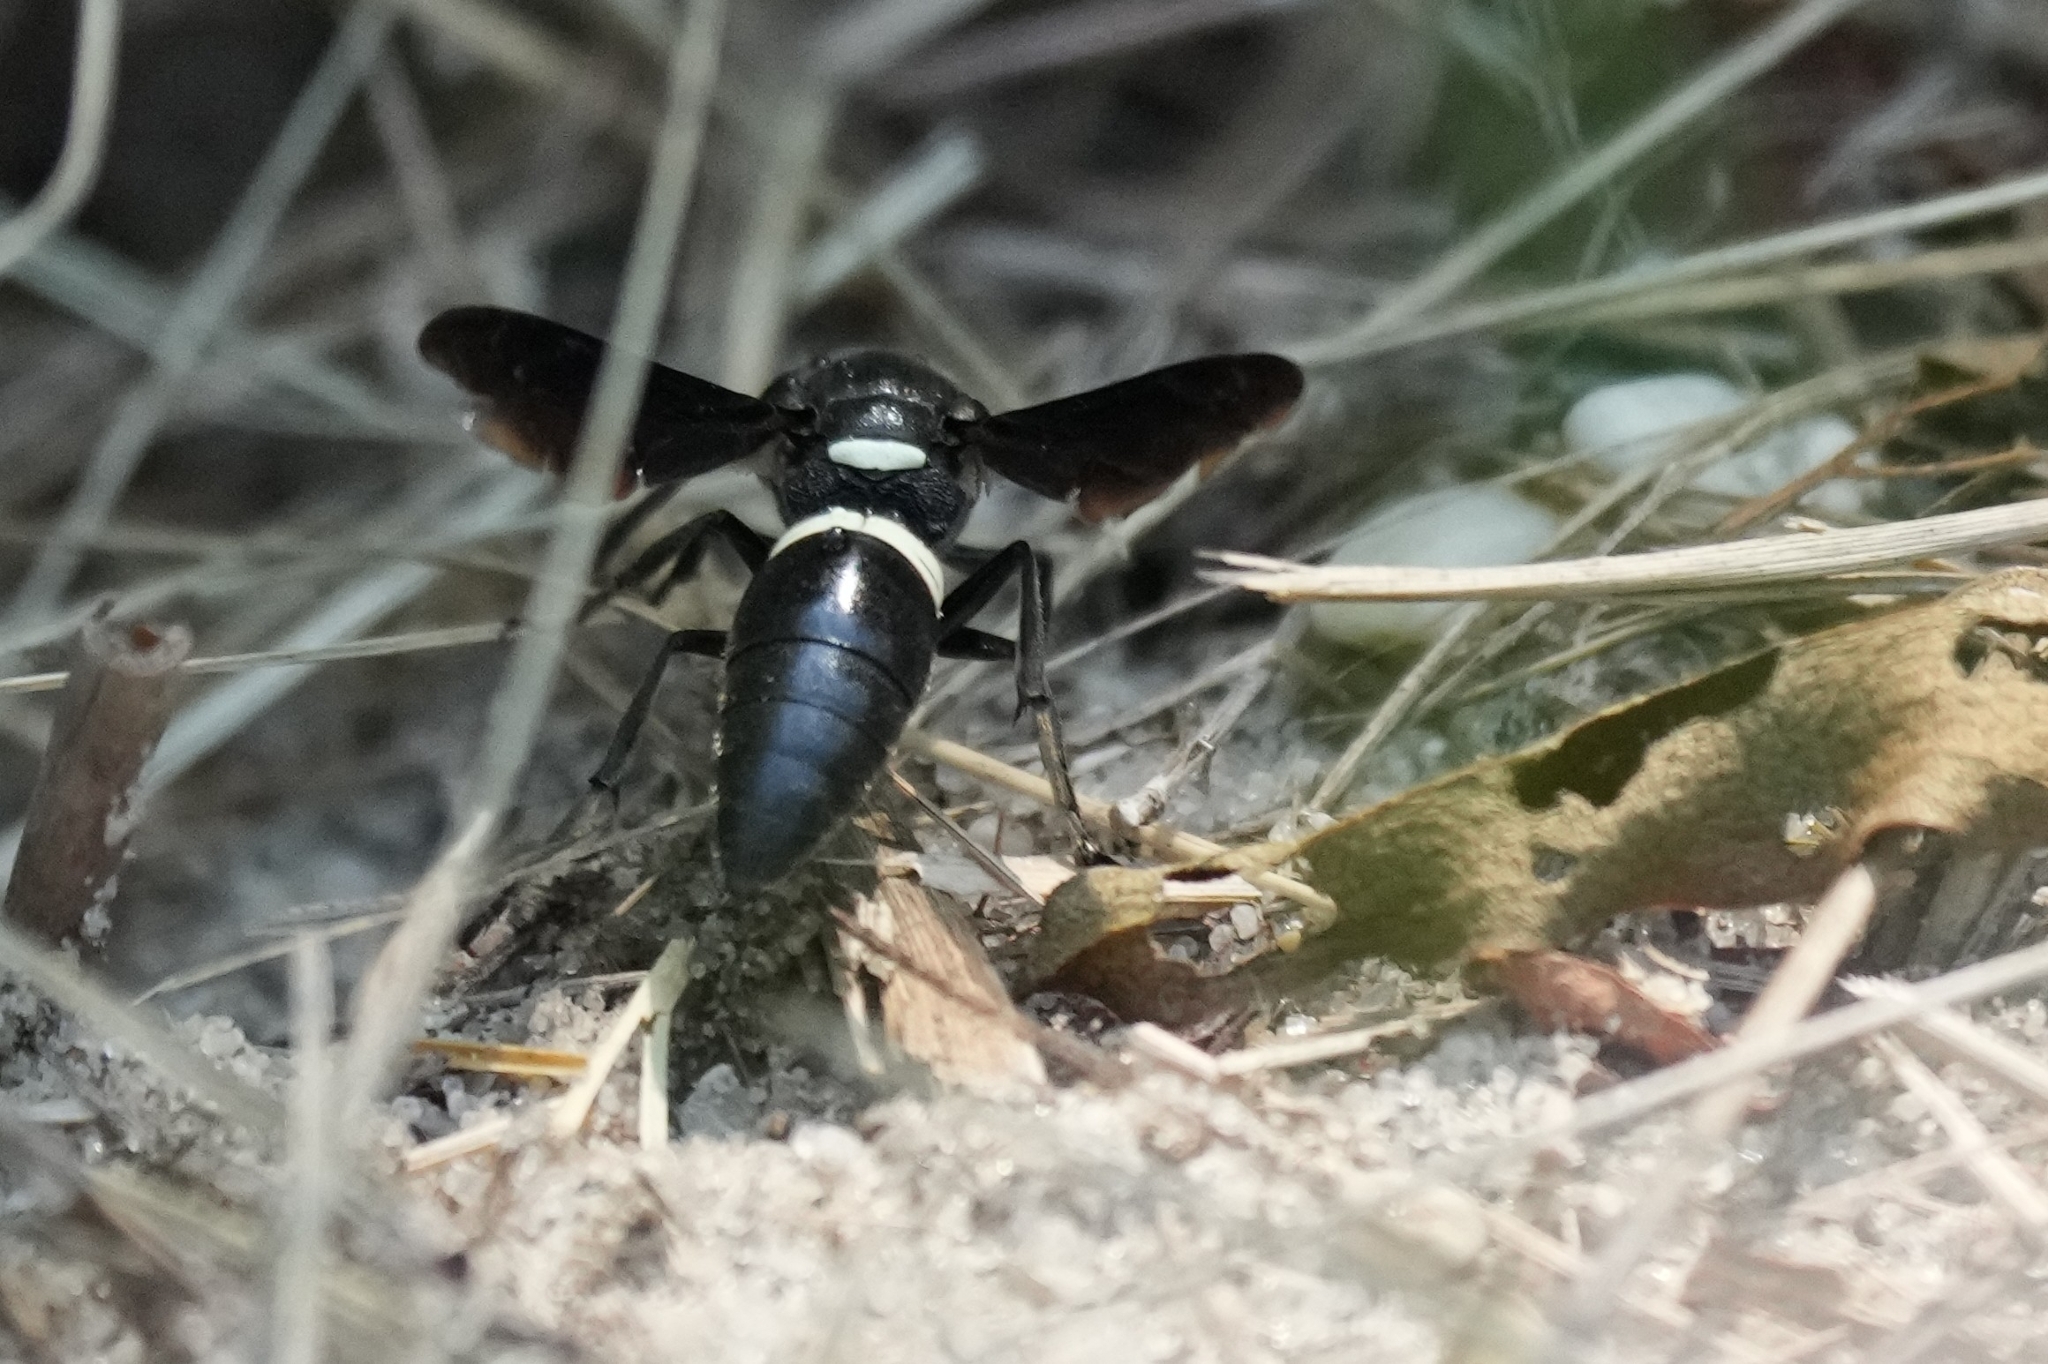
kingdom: Animalia
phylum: Arthropoda
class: Insecta
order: Hymenoptera
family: Eumenidae
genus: Monobia
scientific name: Monobia quadridens
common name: Four-toothed mason wasp
